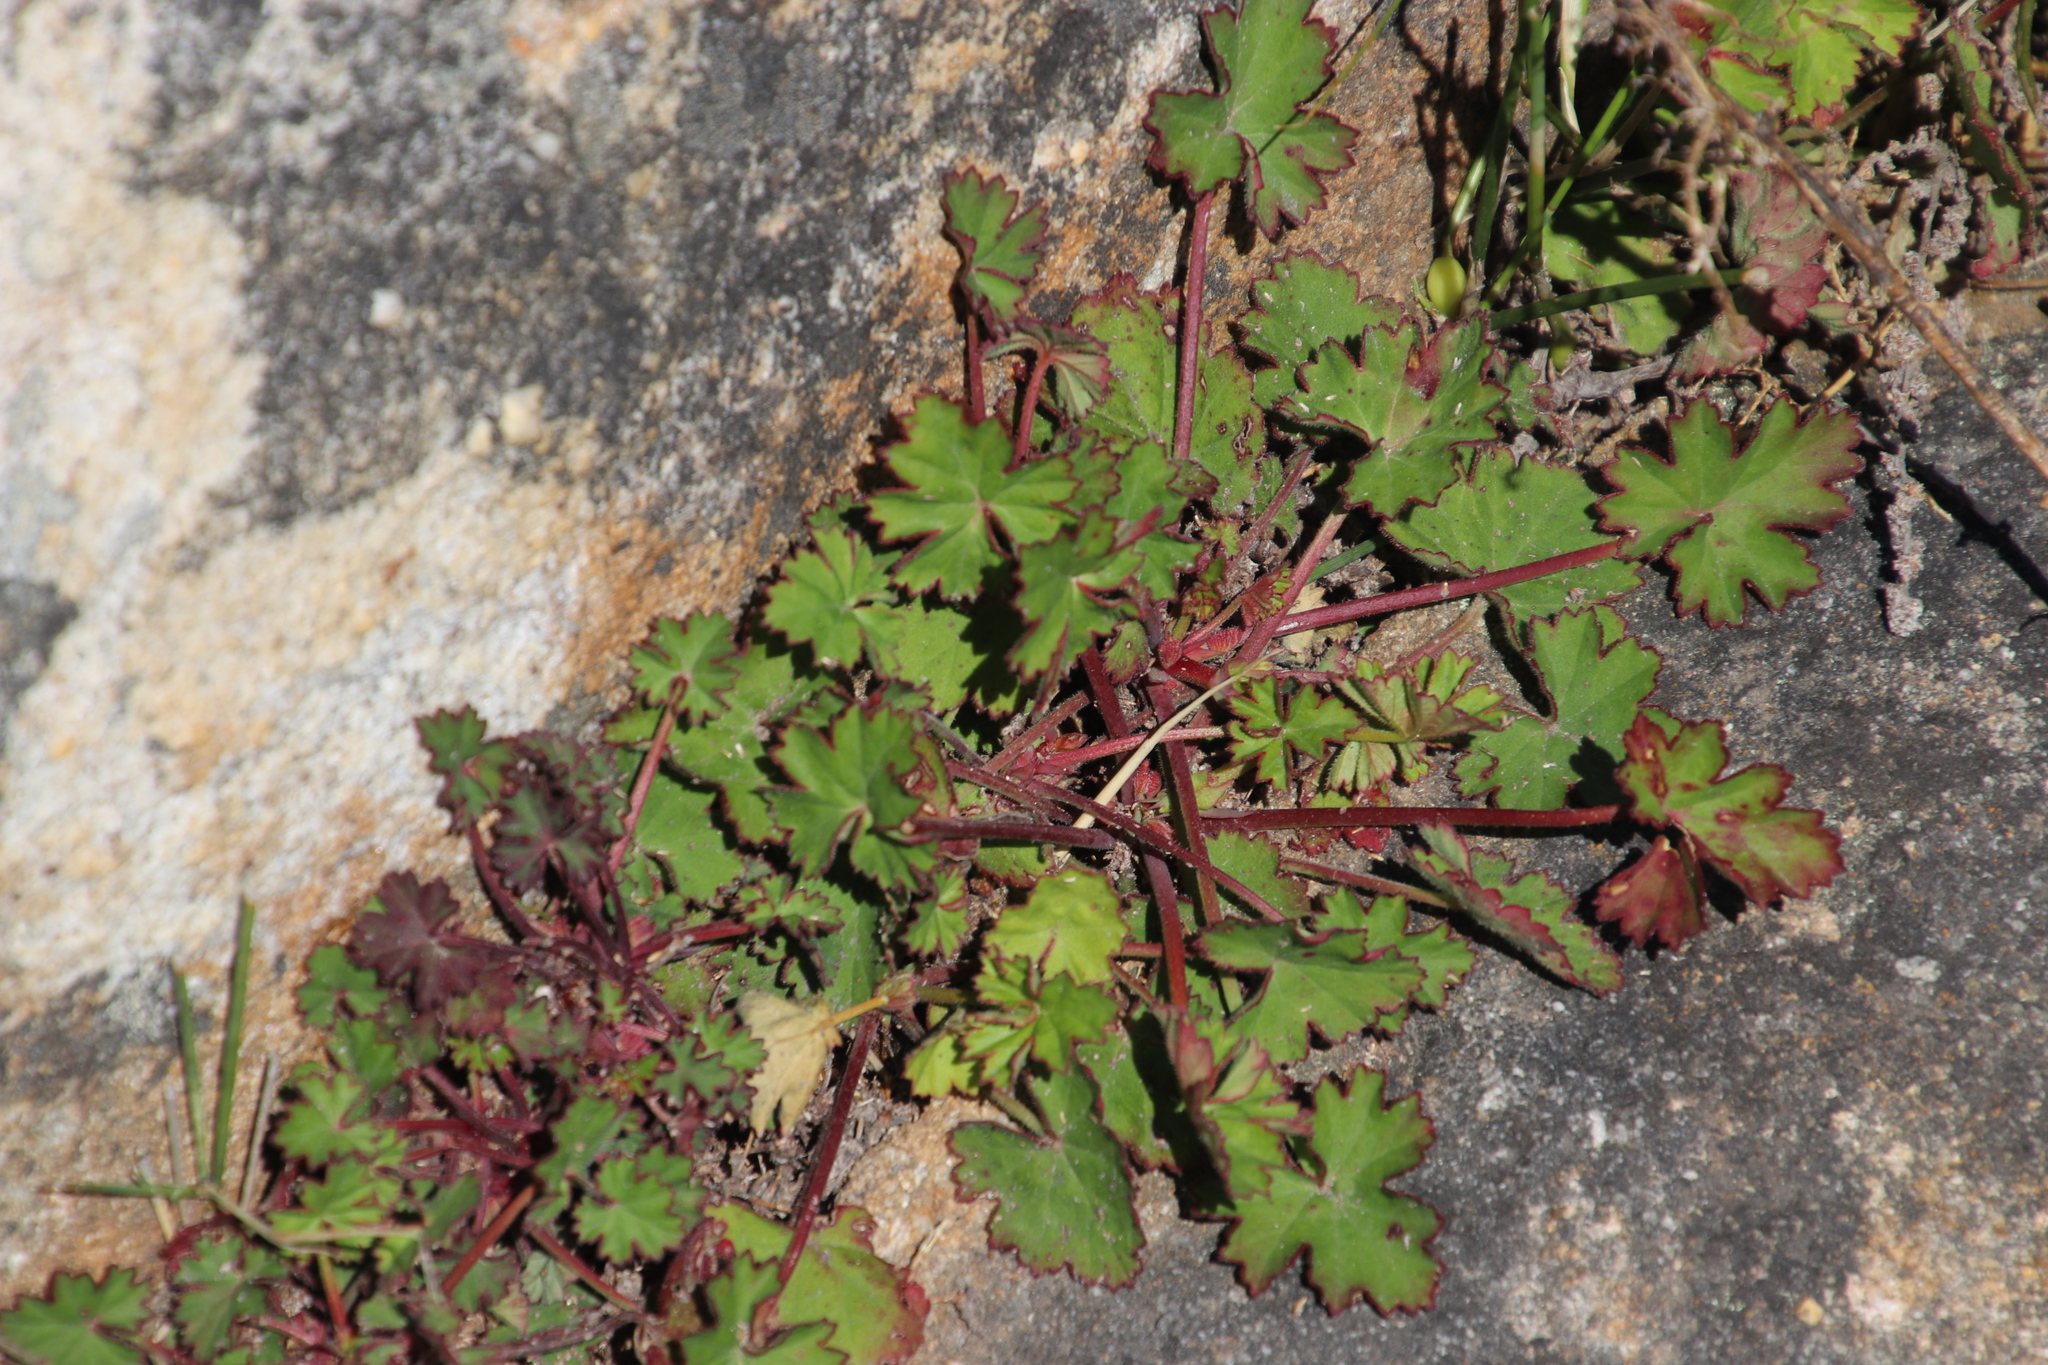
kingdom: Plantae
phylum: Tracheophyta
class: Magnoliopsida
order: Geraniales
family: Geraniaceae
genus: Pelargonium
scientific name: Pelargonium grossularioides
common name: Gooseberry geranium
